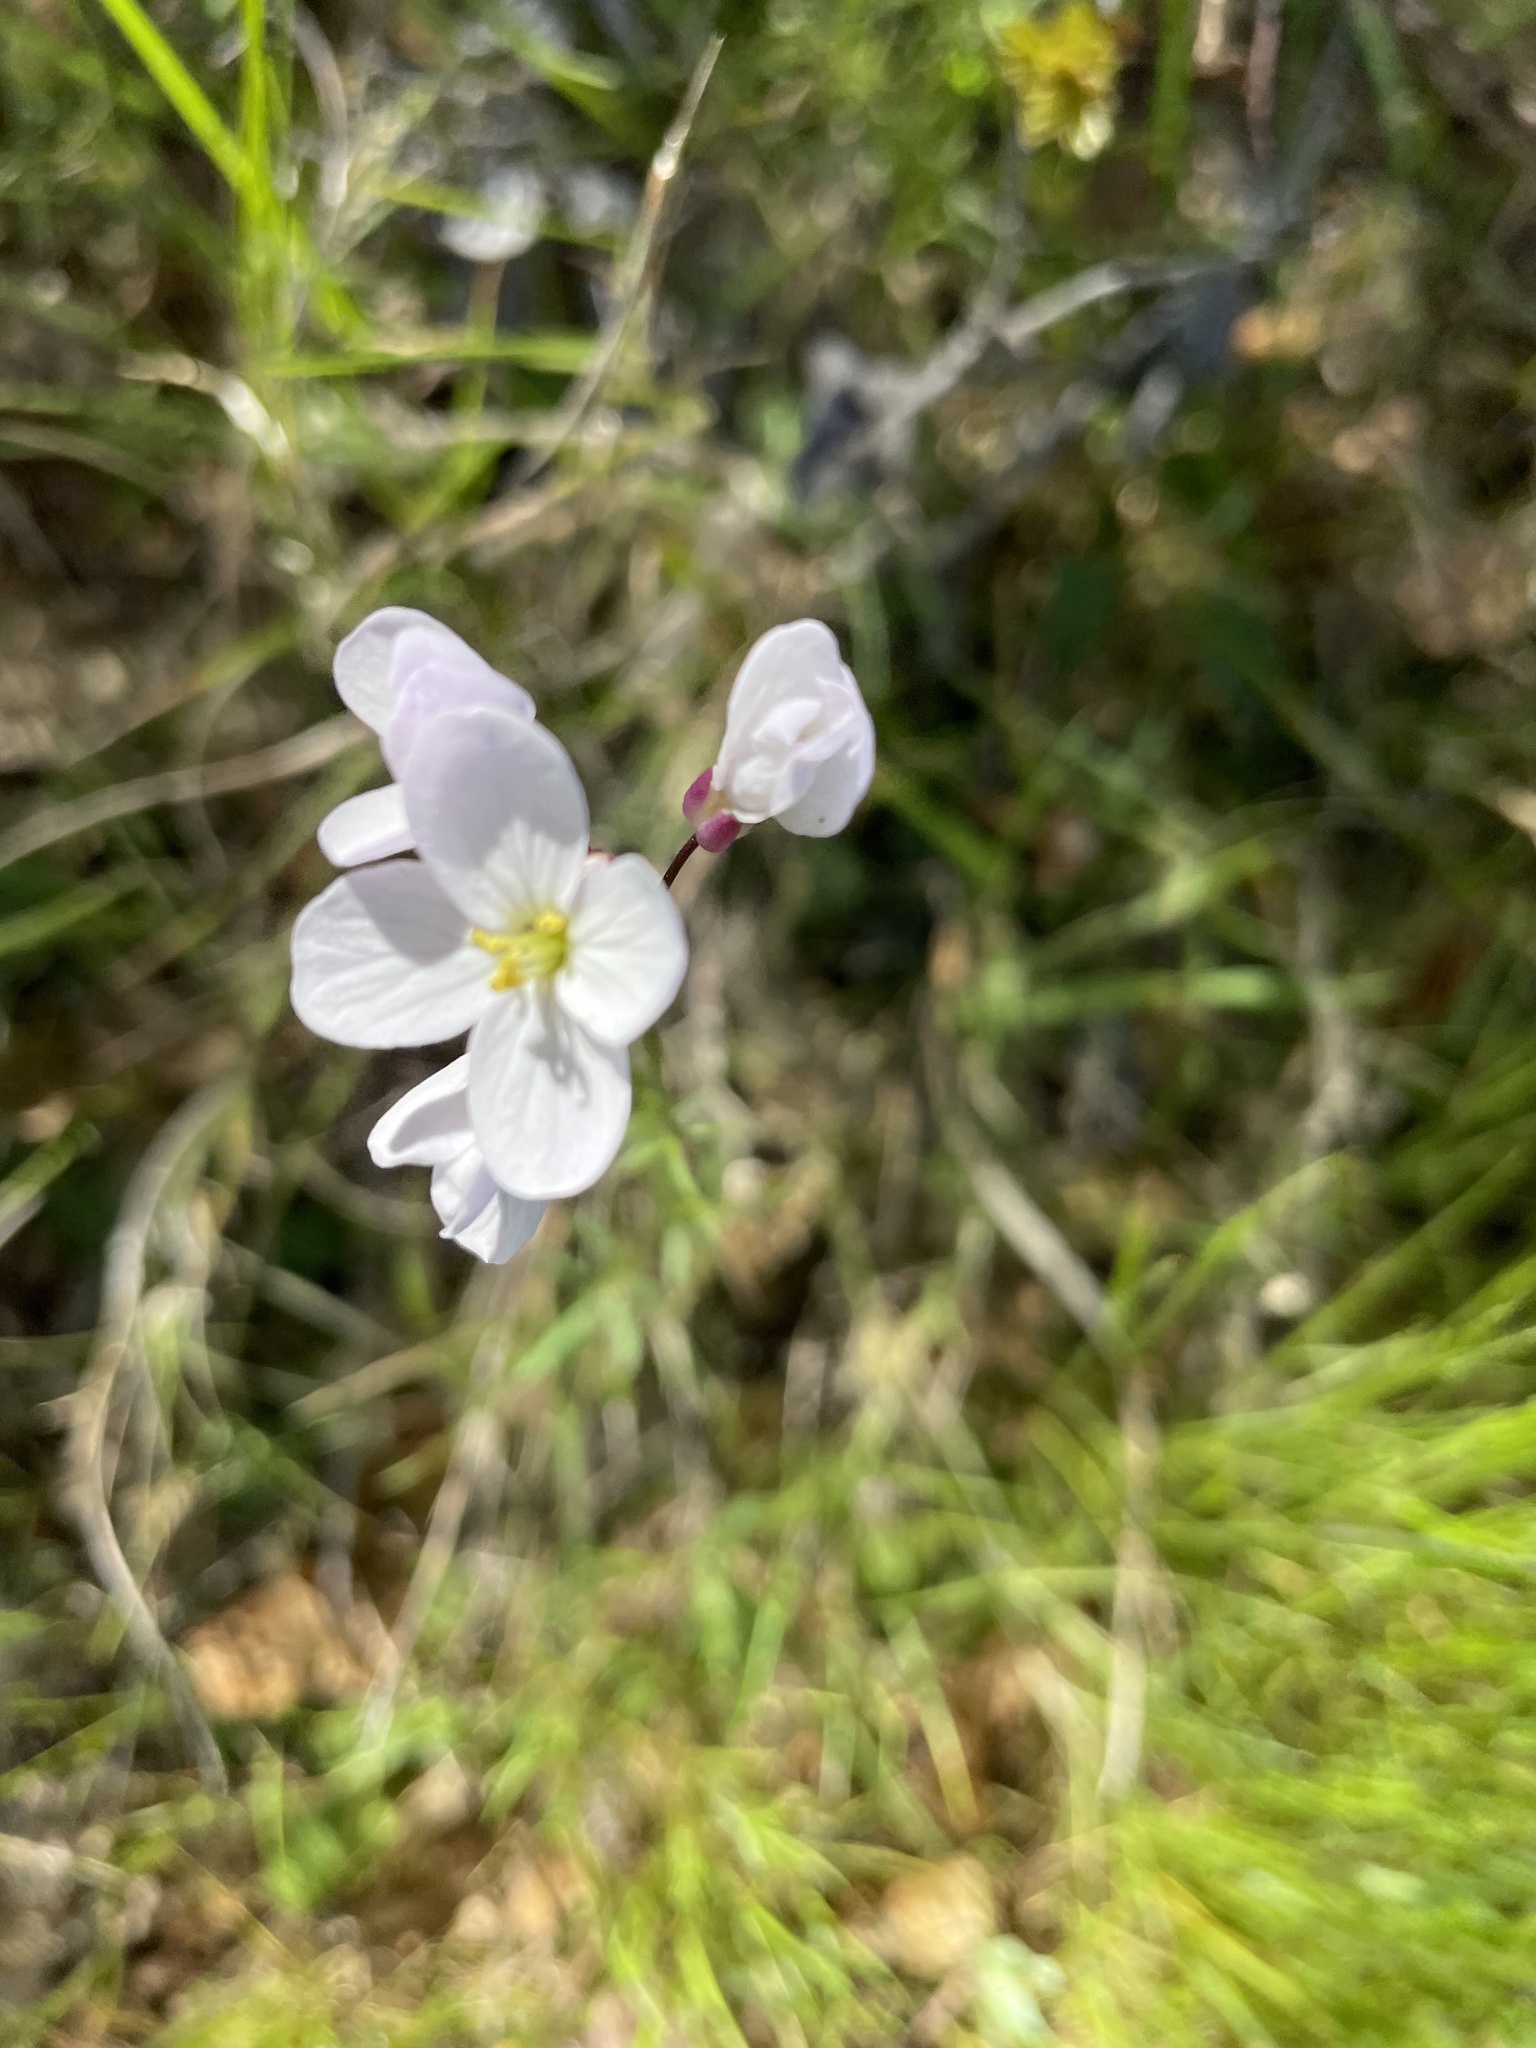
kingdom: Plantae
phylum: Tracheophyta
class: Magnoliopsida
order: Brassicales
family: Brassicaceae
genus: Cardamine
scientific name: Cardamine californica
